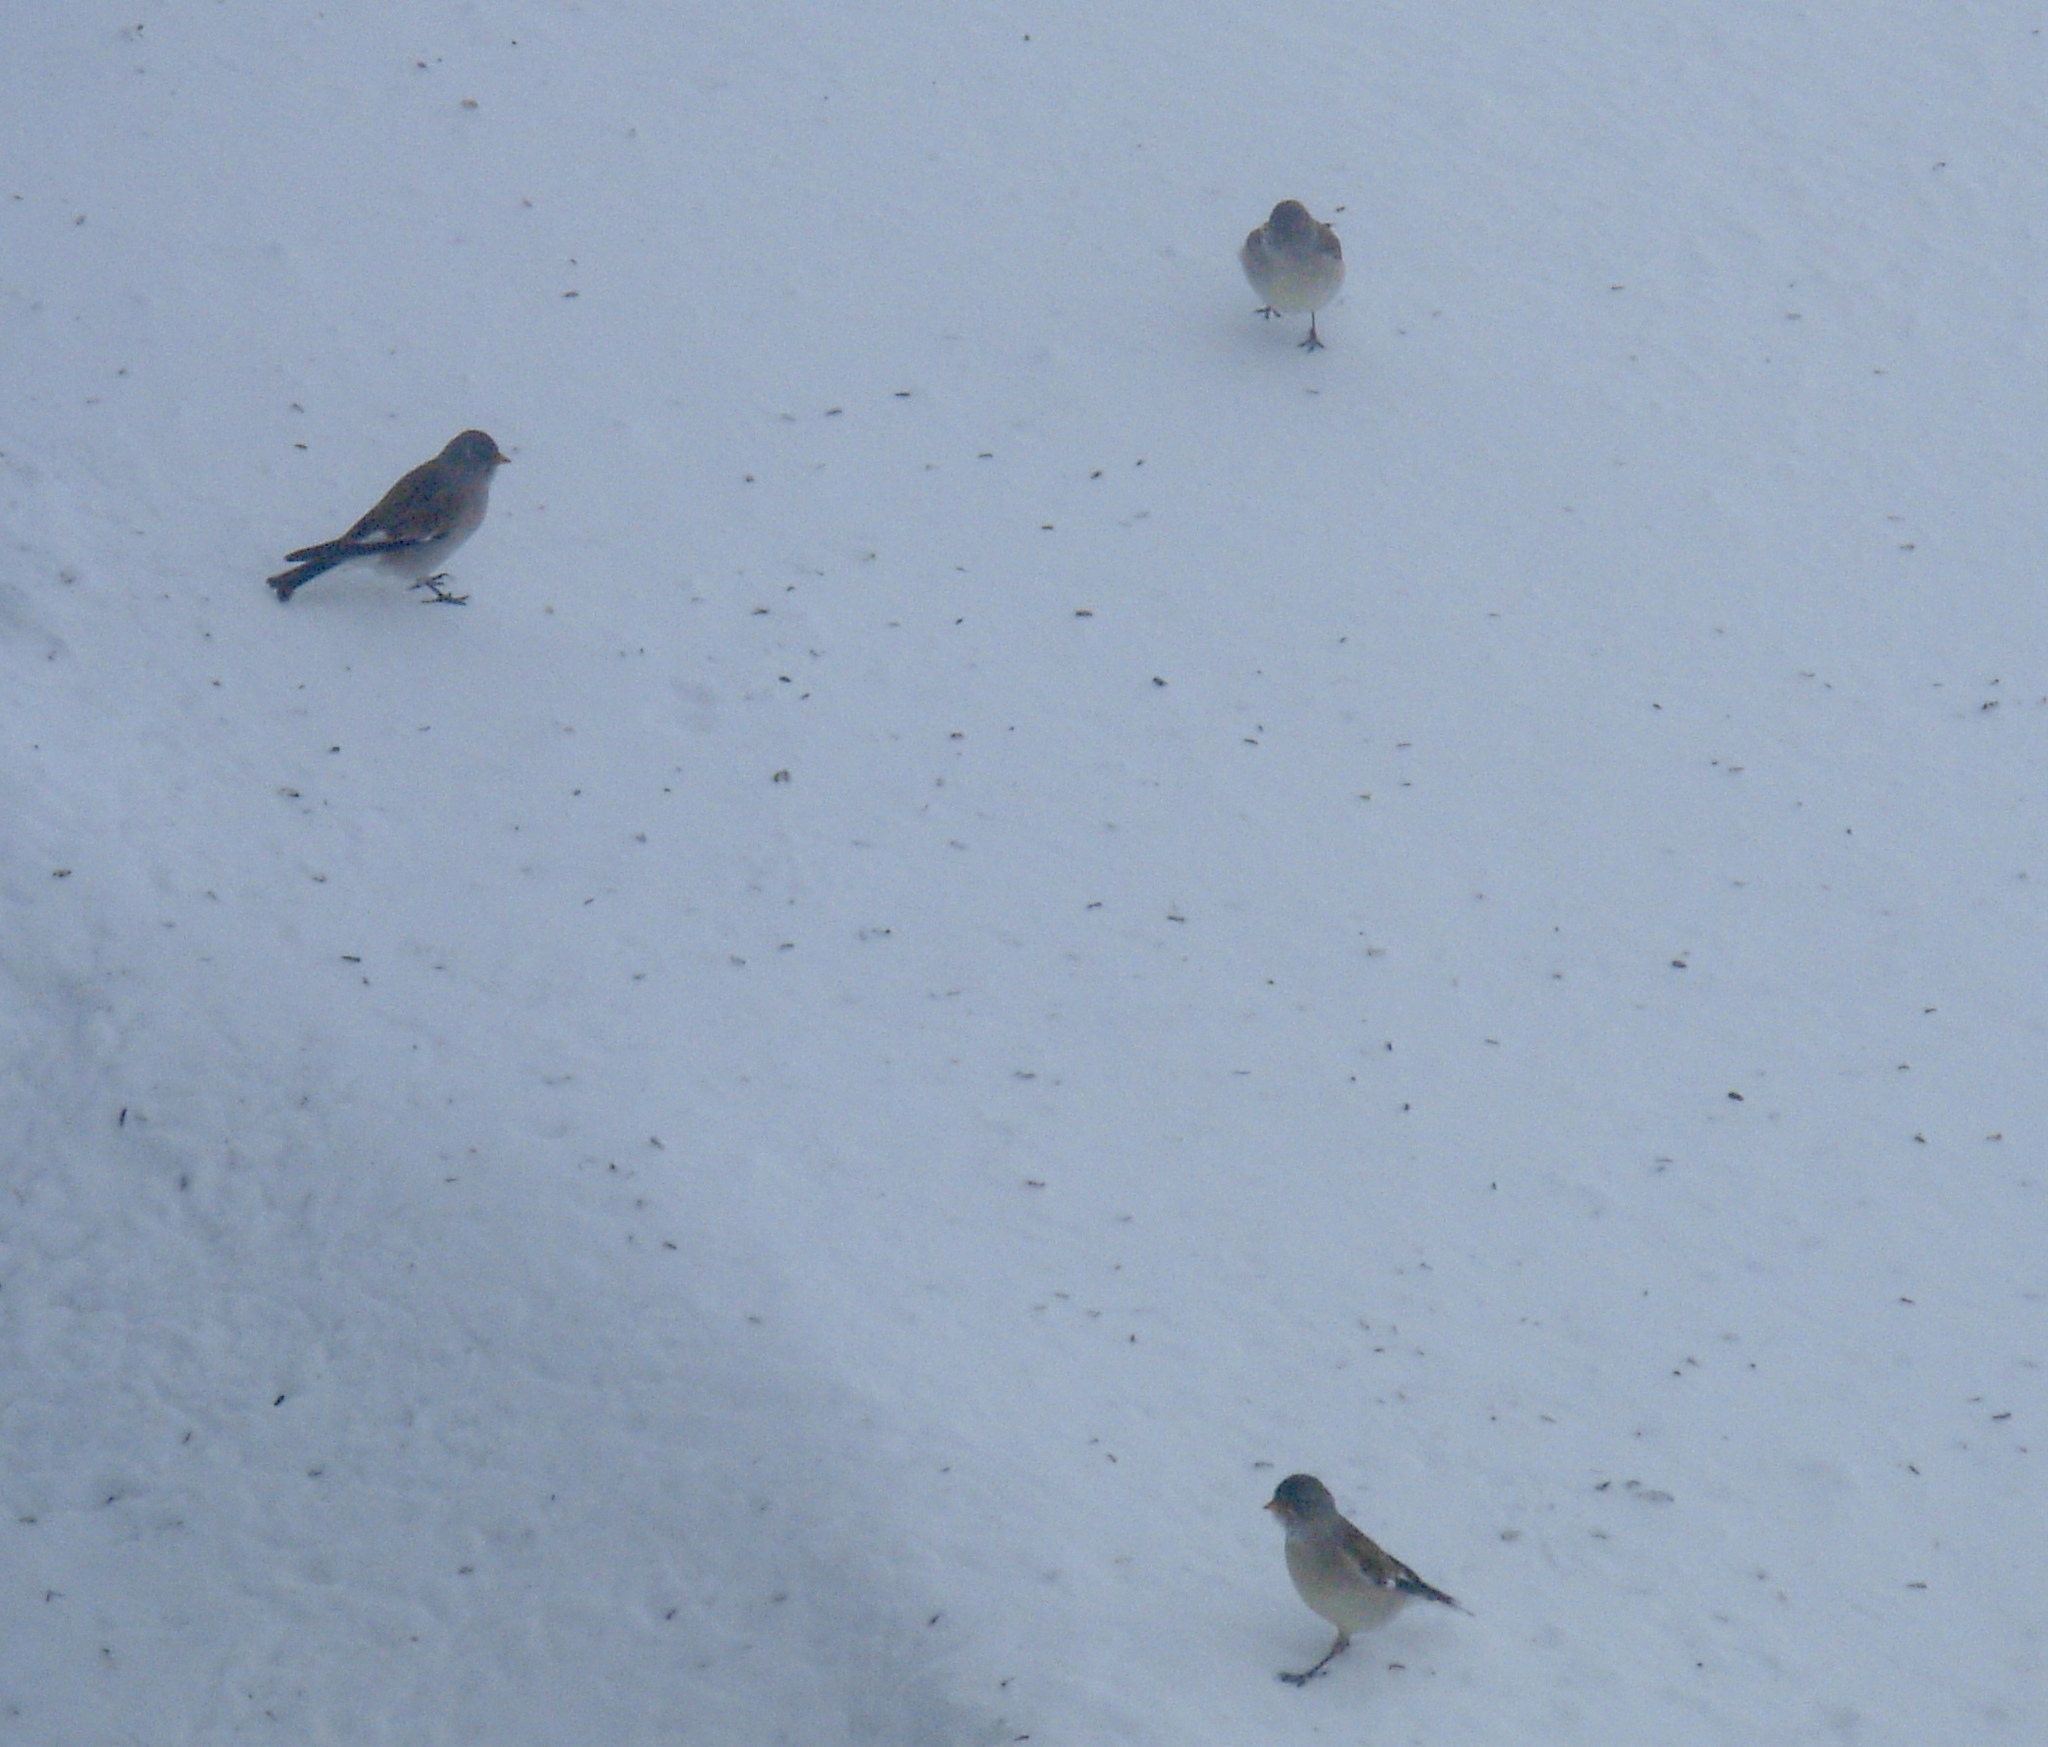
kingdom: Animalia
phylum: Chordata
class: Aves
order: Passeriformes
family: Passeridae
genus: Montifringilla
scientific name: Montifringilla nivalis
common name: White-winged snowfinch
